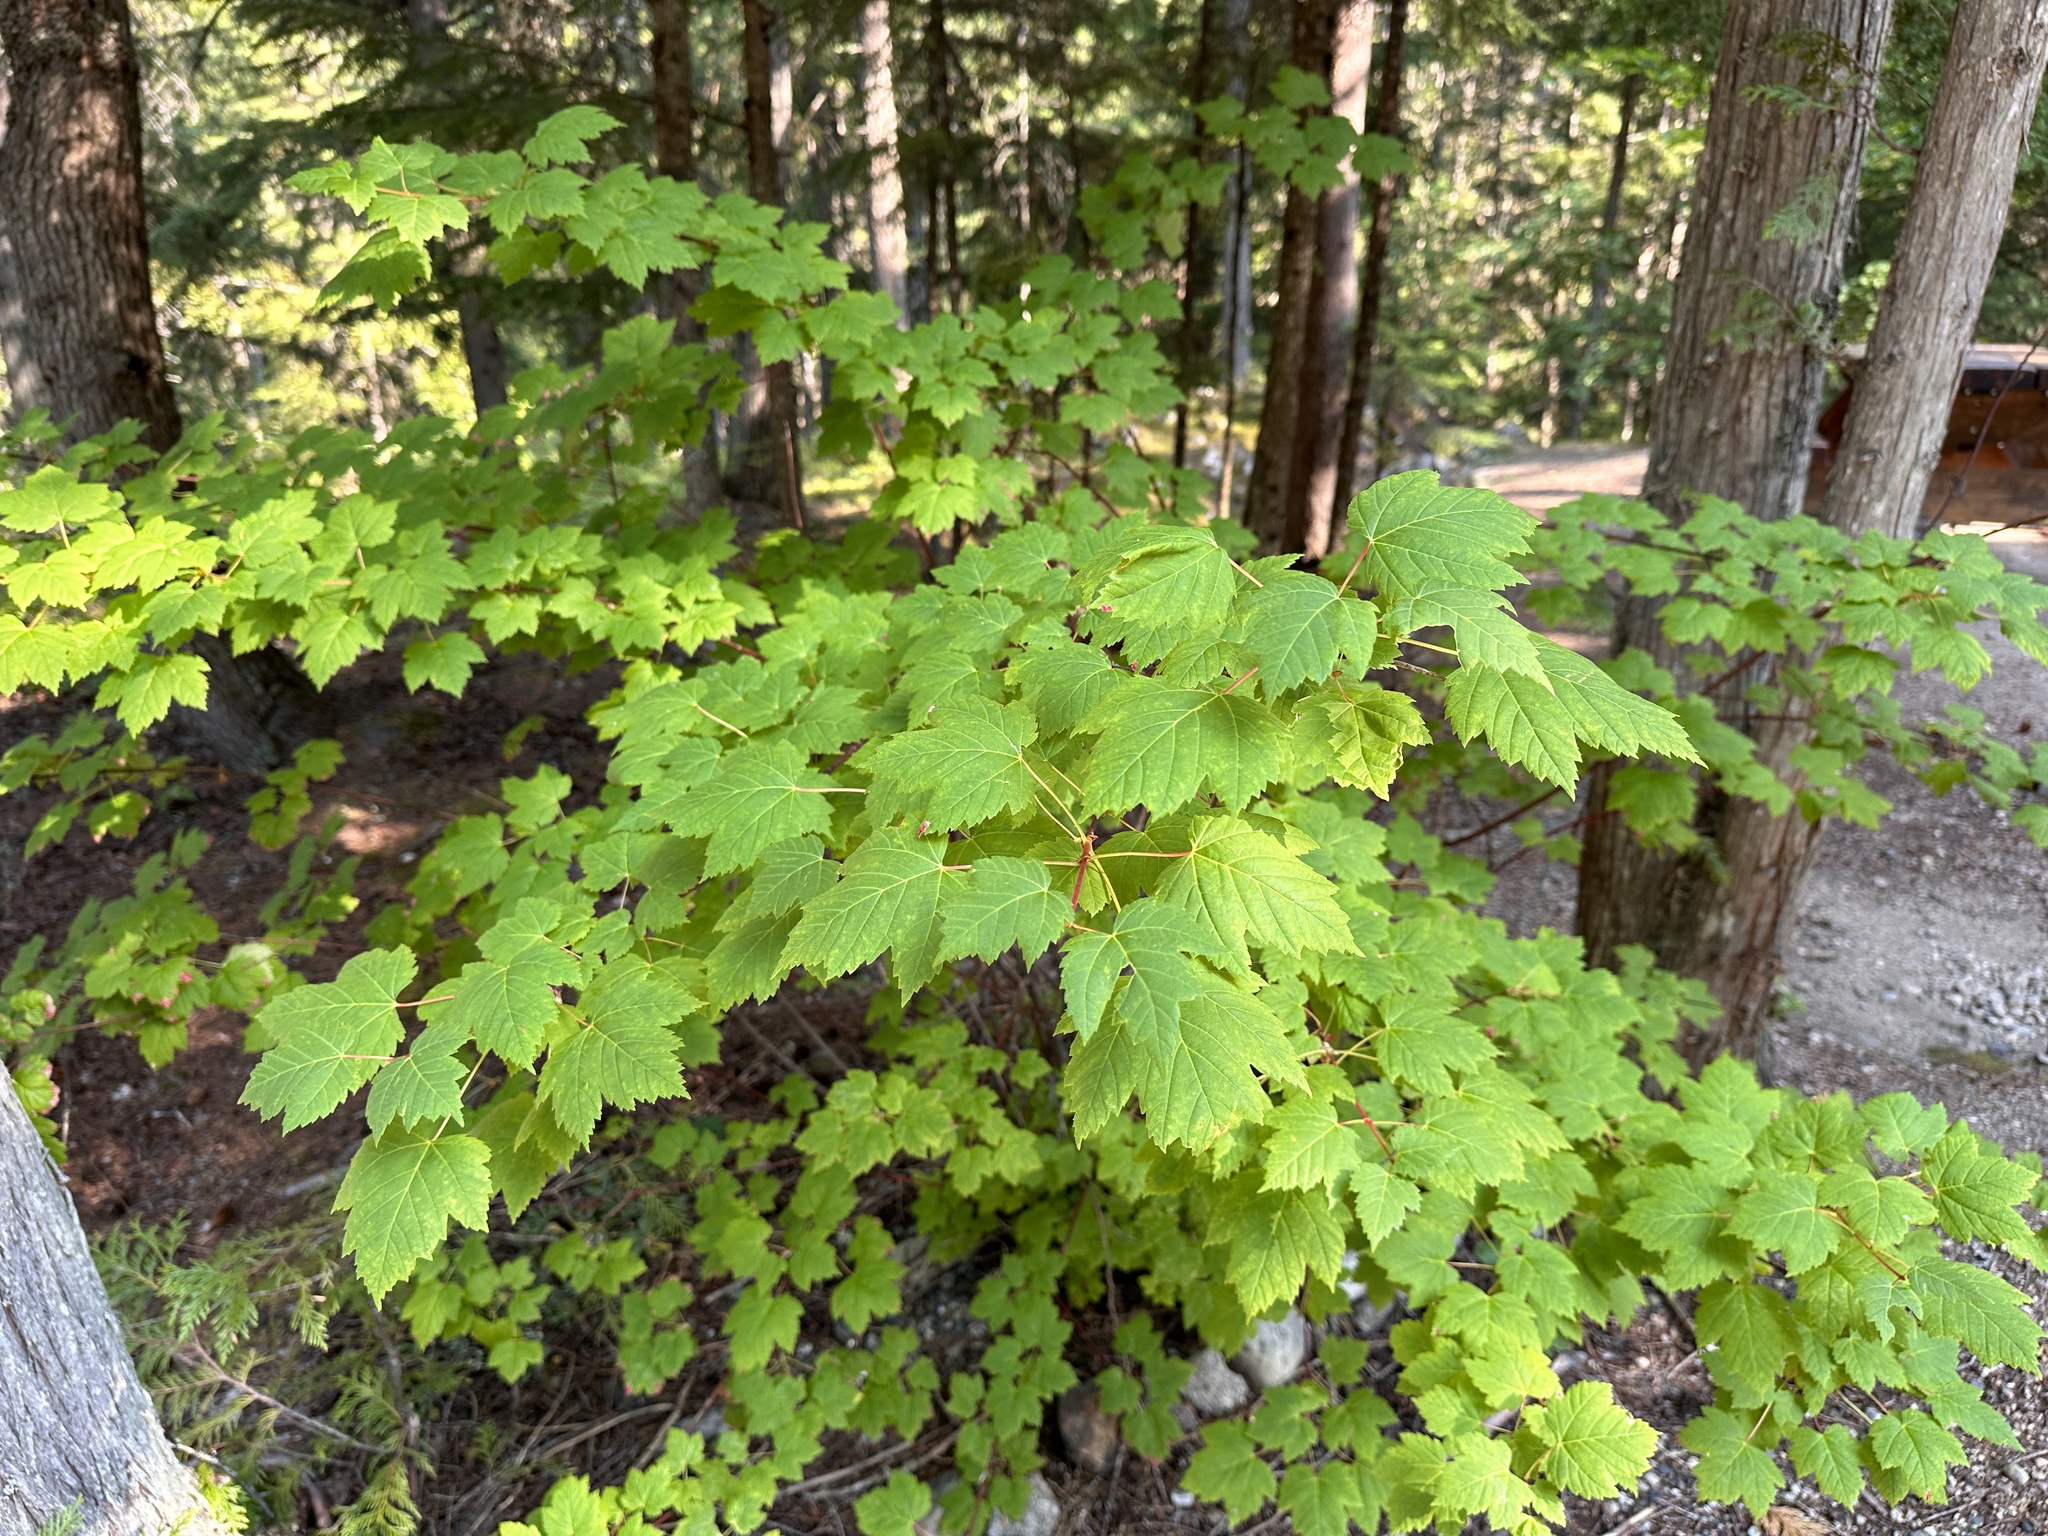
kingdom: Plantae
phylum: Tracheophyta
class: Magnoliopsida
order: Sapindales
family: Sapindaceae
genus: Acer
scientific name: Acer glabrum
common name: Rocky mountain maple
